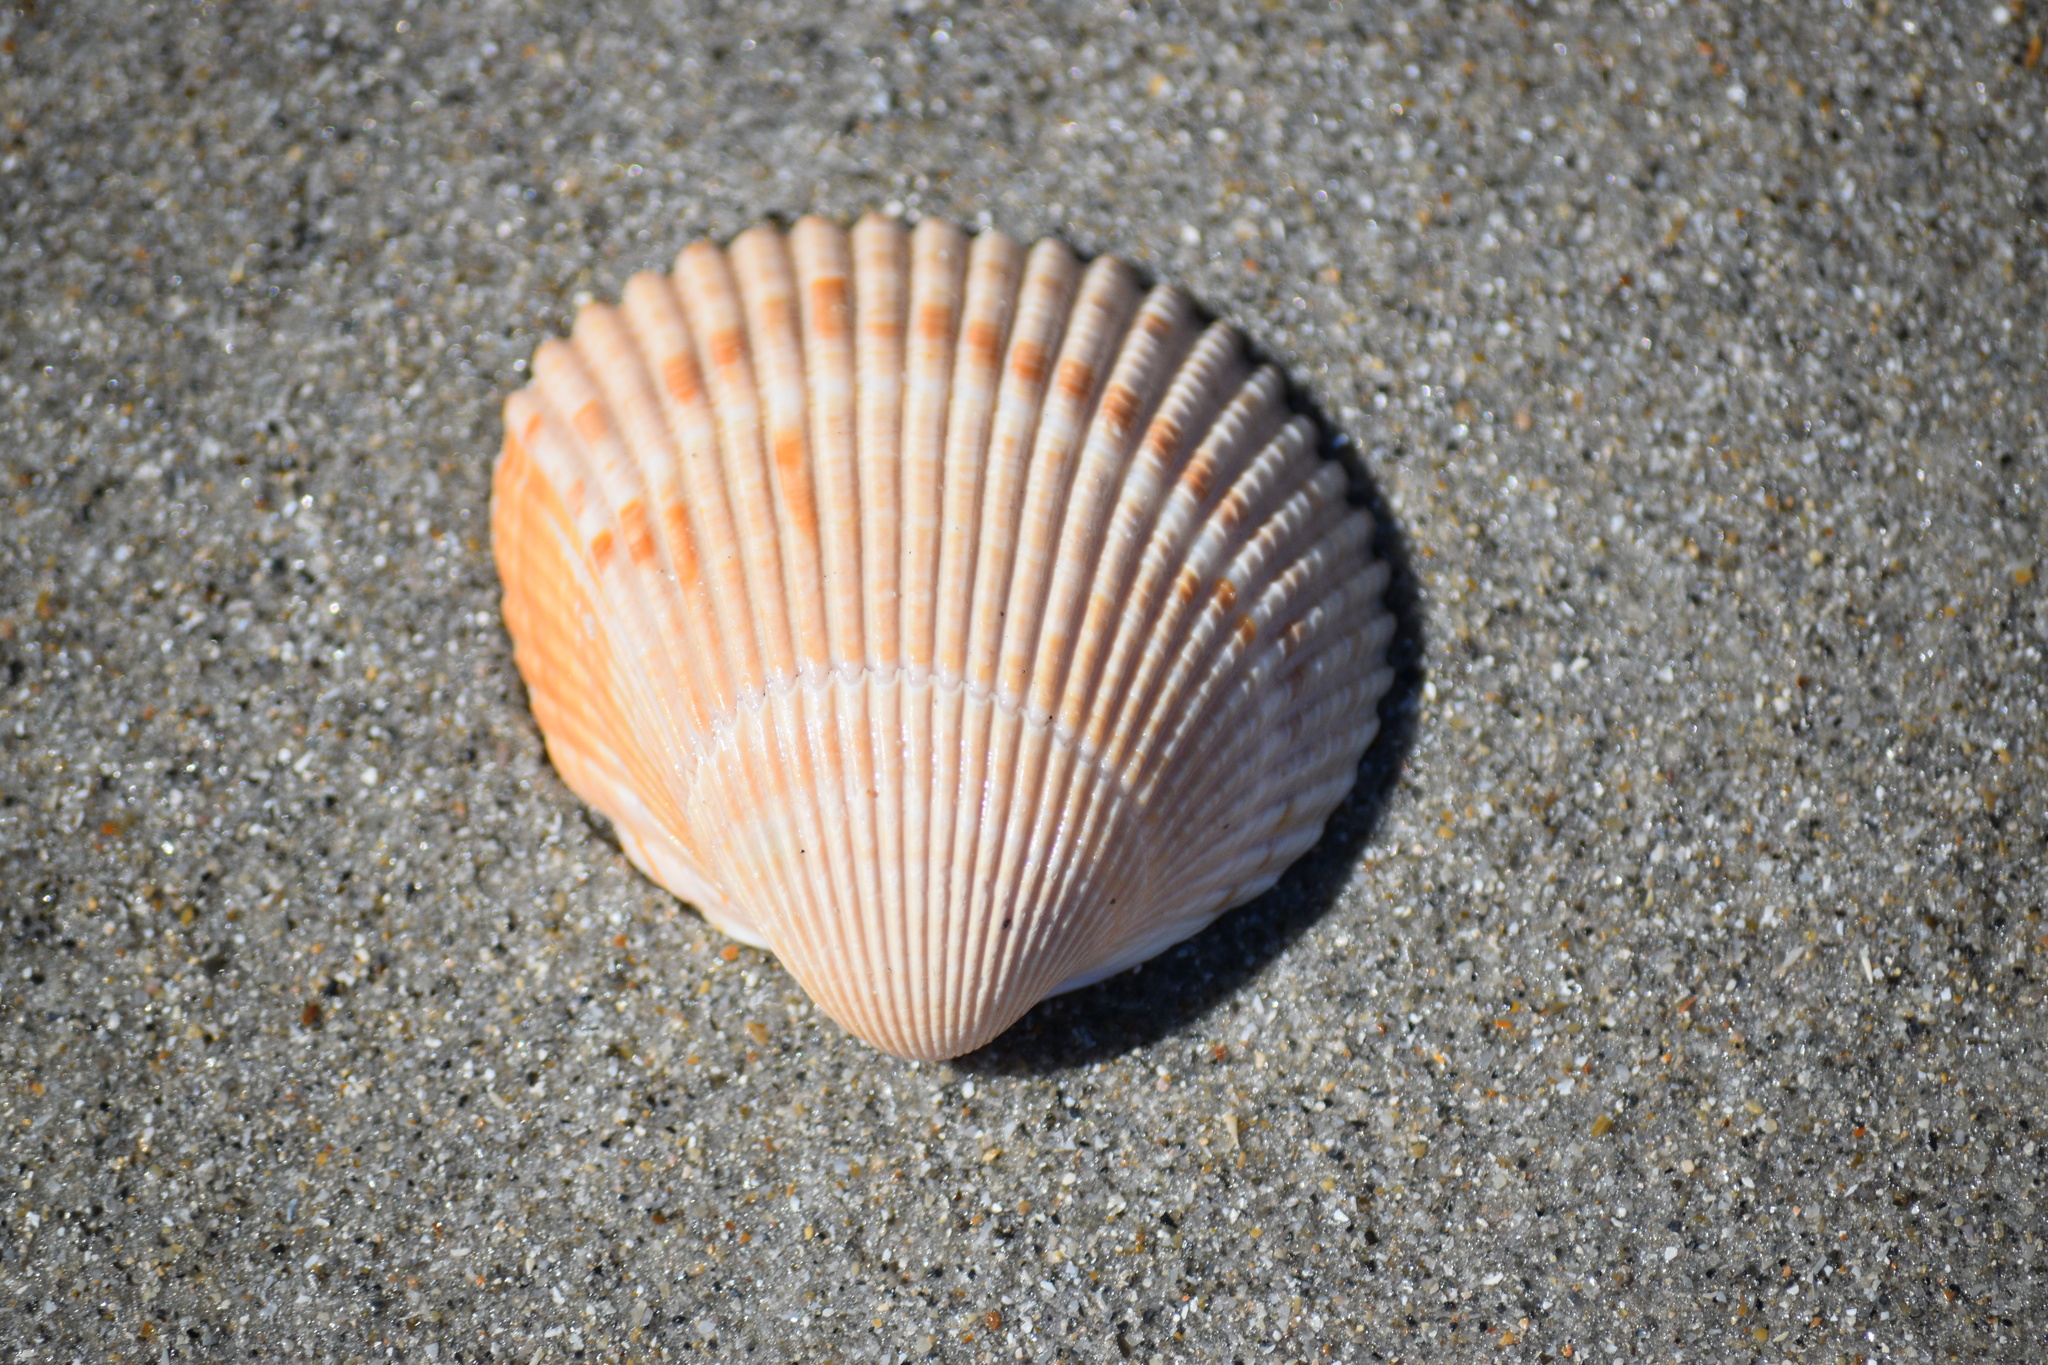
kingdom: Animalia
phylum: Mollusca
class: Bivalvia
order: Cardiida
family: Cardiidae
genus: Dinocardium
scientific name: Dinocardium robustum
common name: Atlantic giant cockle
